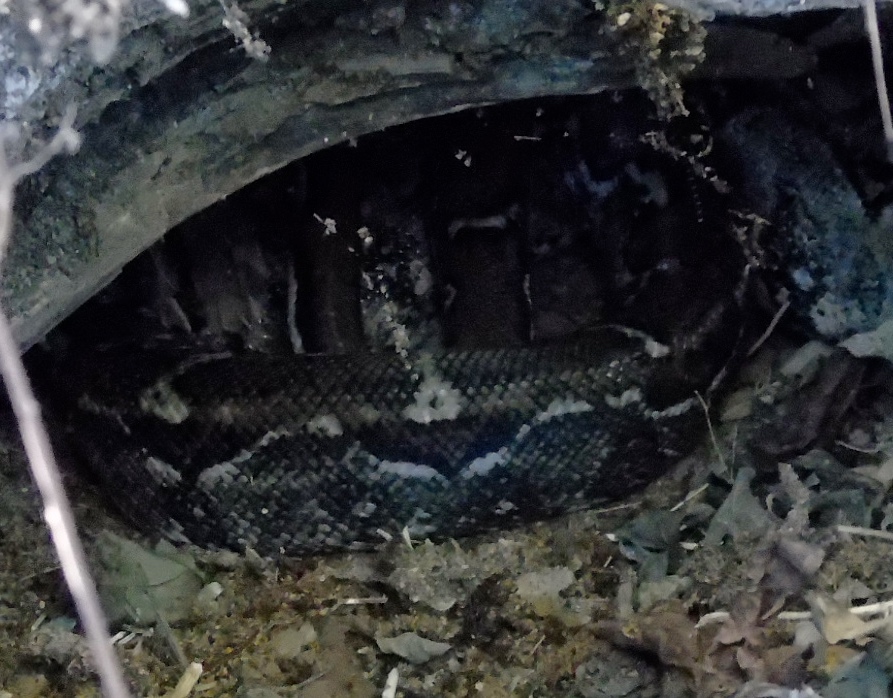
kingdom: Animalia
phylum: Chordata
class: Squamata
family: Boidae
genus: Boa
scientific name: Boa
